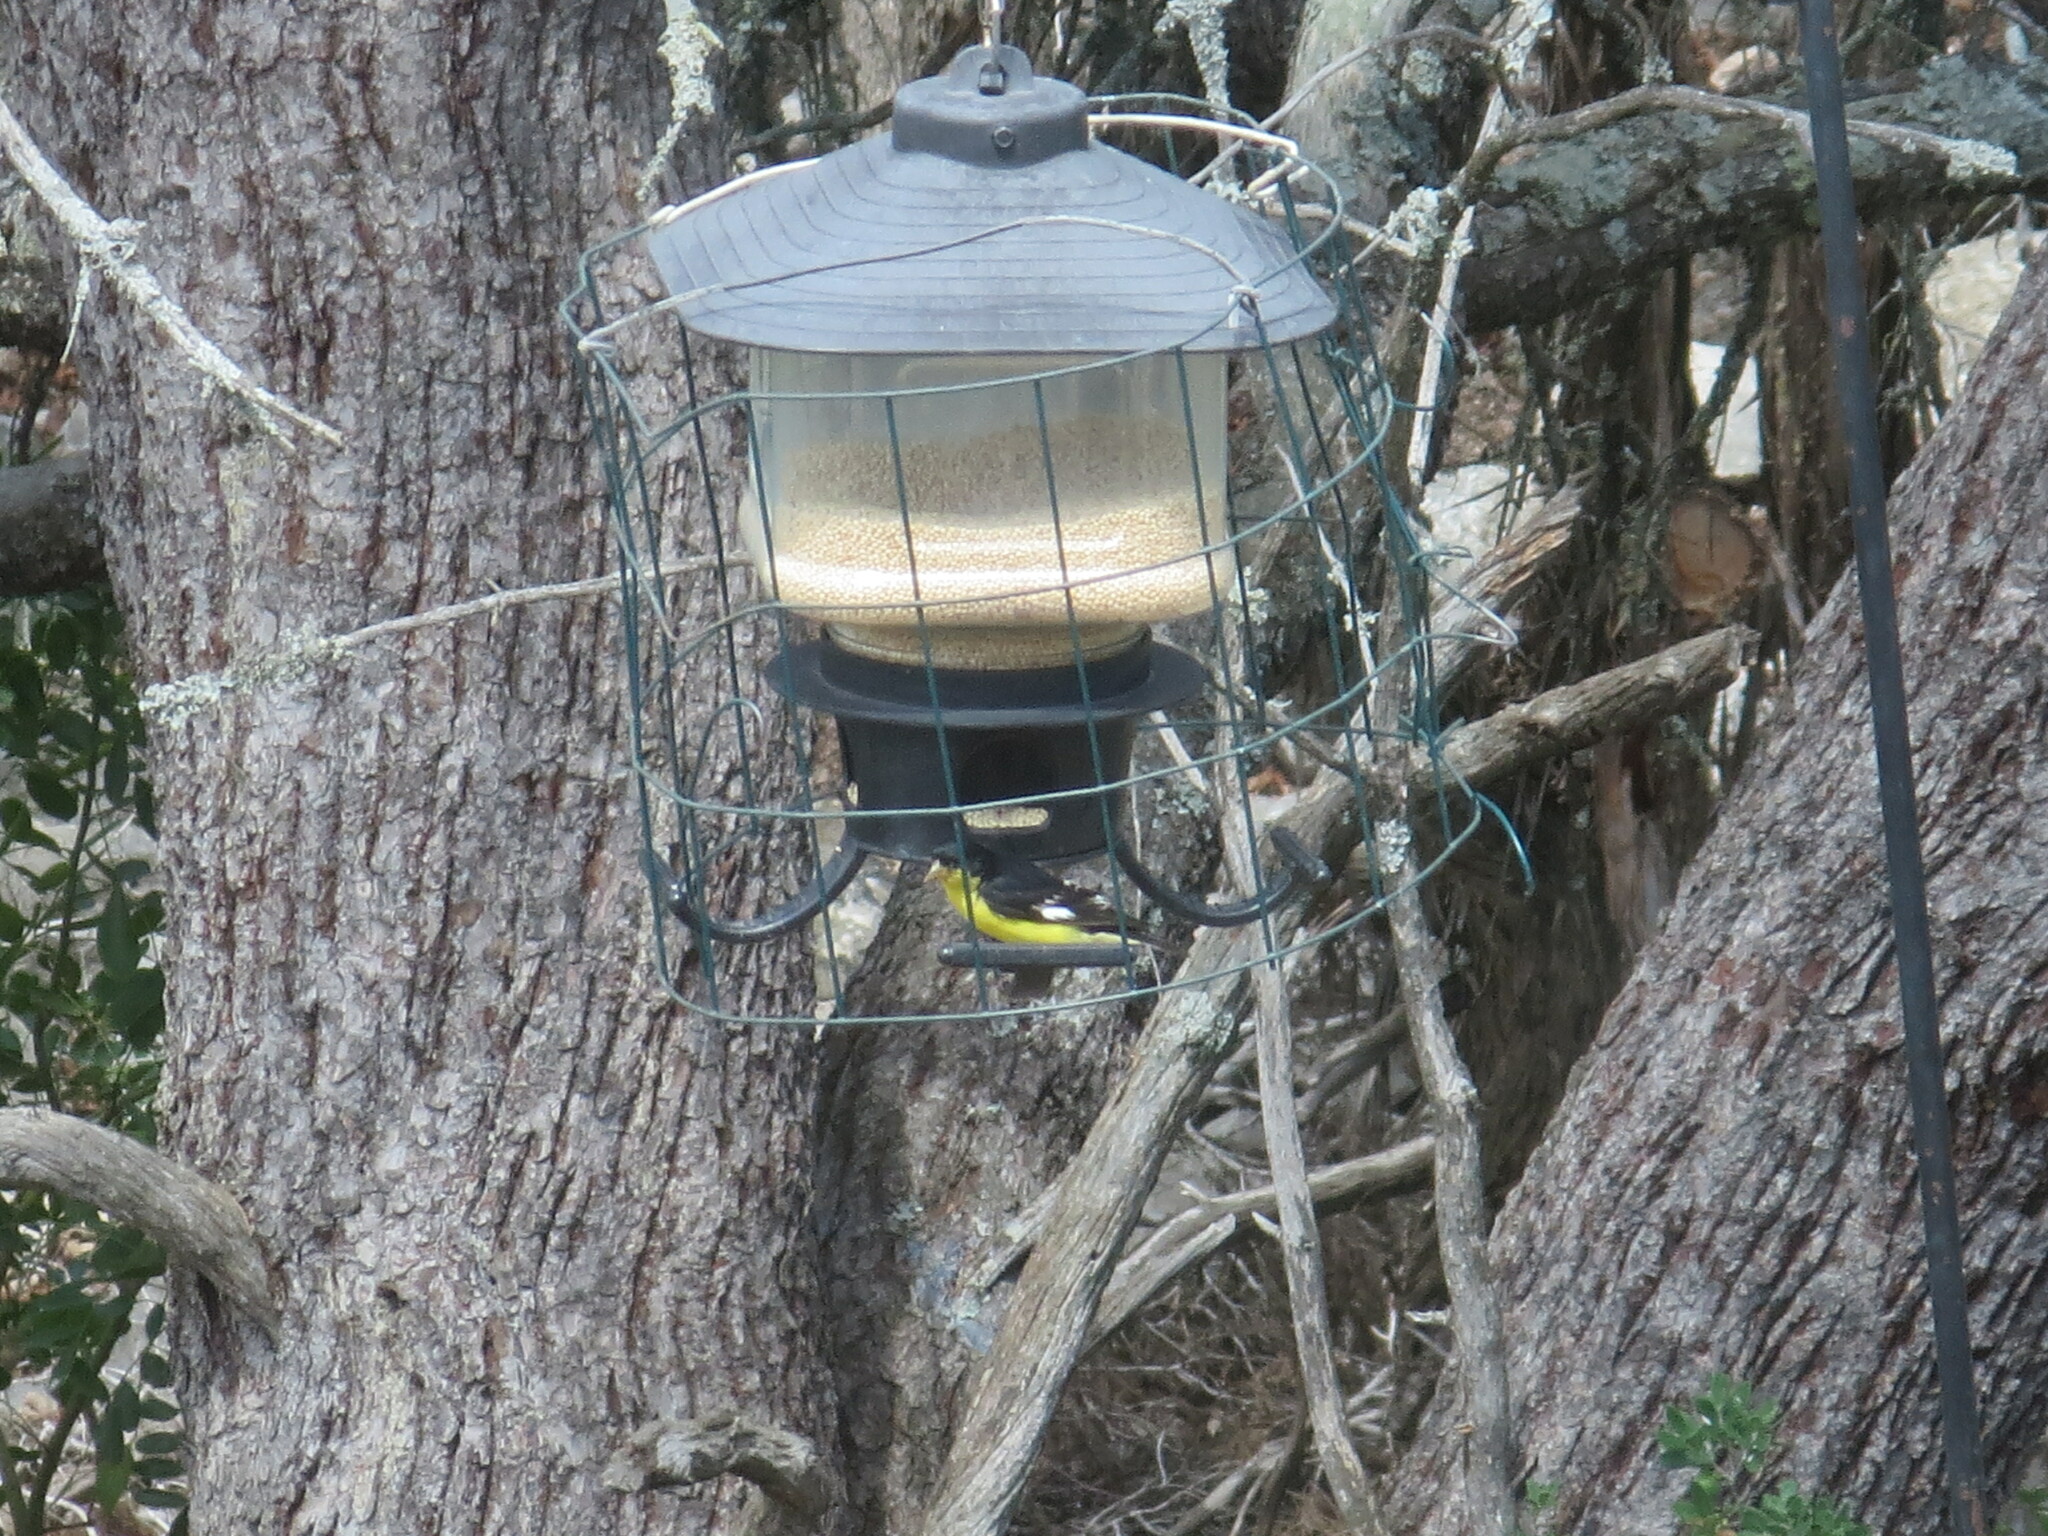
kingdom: Animalia
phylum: Chordata
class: Aves
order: Passeriformes
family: Fringillidae
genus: Spinus
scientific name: Spinus psaltria
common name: Lesser goldfinch
